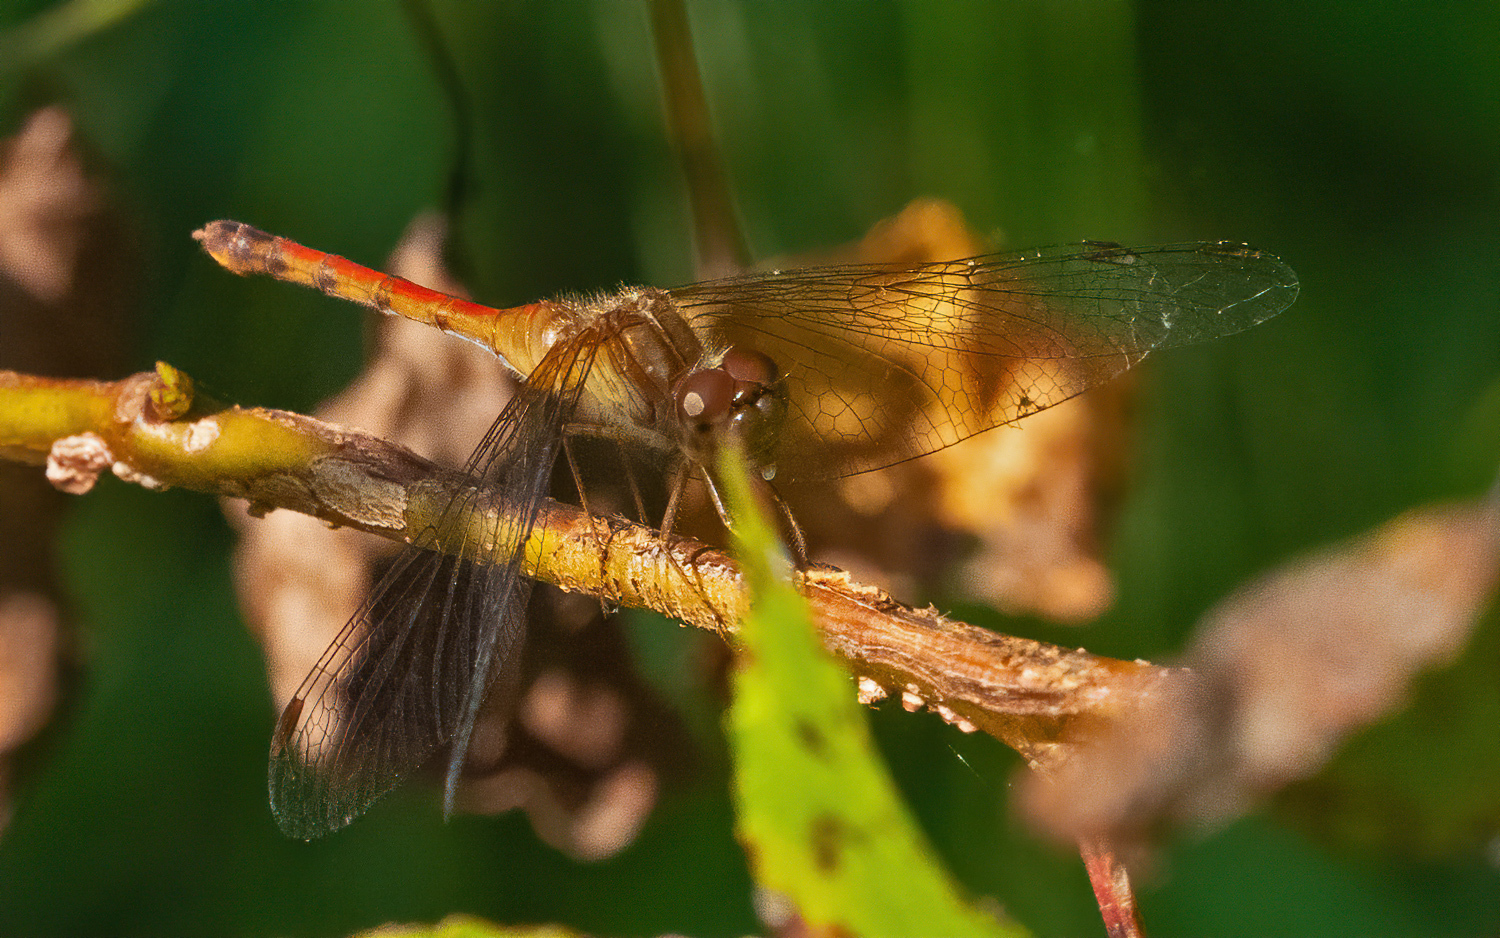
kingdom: Animalia
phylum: Arthropoda
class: Insecta
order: Odonata
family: Libellulidae
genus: Sympetrum
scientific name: Sympetrum vicinum
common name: Autumn meadowhawk
